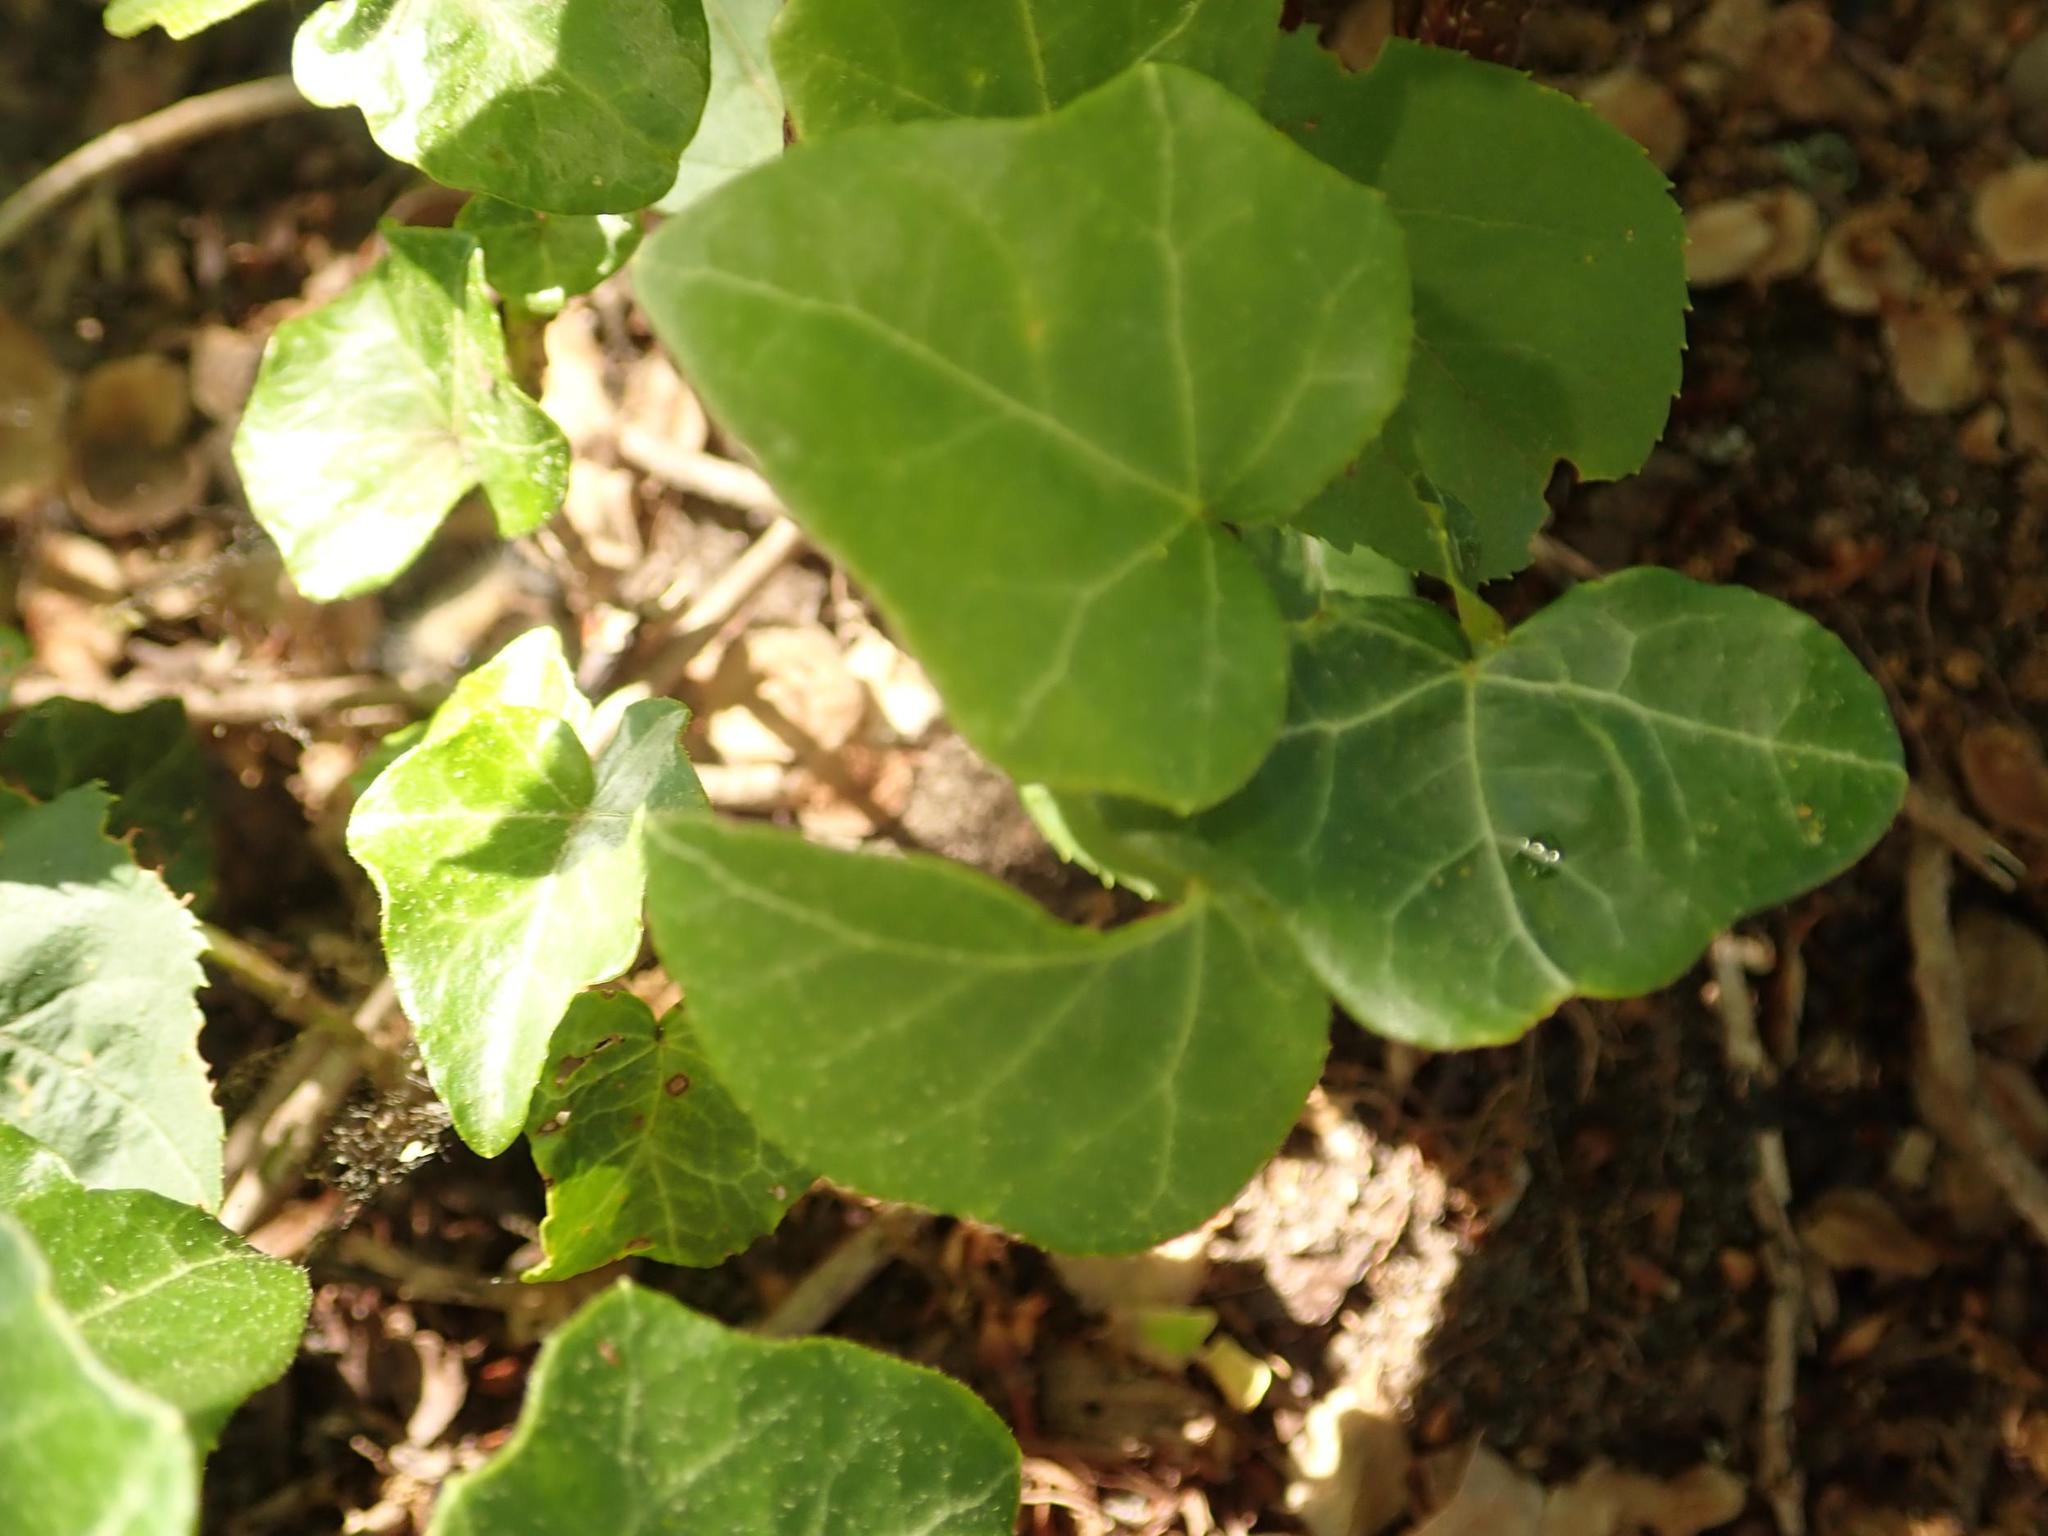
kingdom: Plantae
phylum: Tracheophyta
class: Magnoliopsida
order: Apiales
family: Araliaceae
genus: Hedera
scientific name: Hedera helix
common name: Ivy
